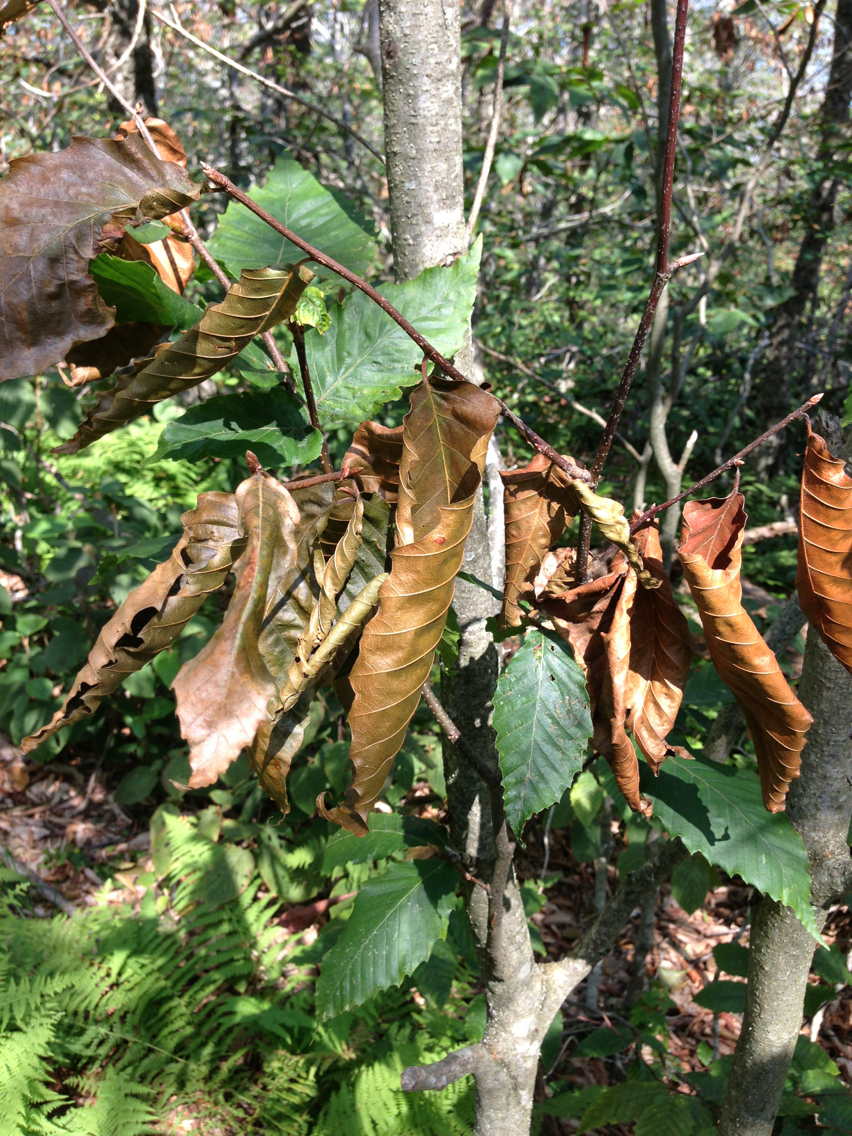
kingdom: Plantae
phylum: Tracheophyta
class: Magnoliopsida
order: Fagales
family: Fagaceae
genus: Fagus
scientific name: Fagus grandifolia
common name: American beech
